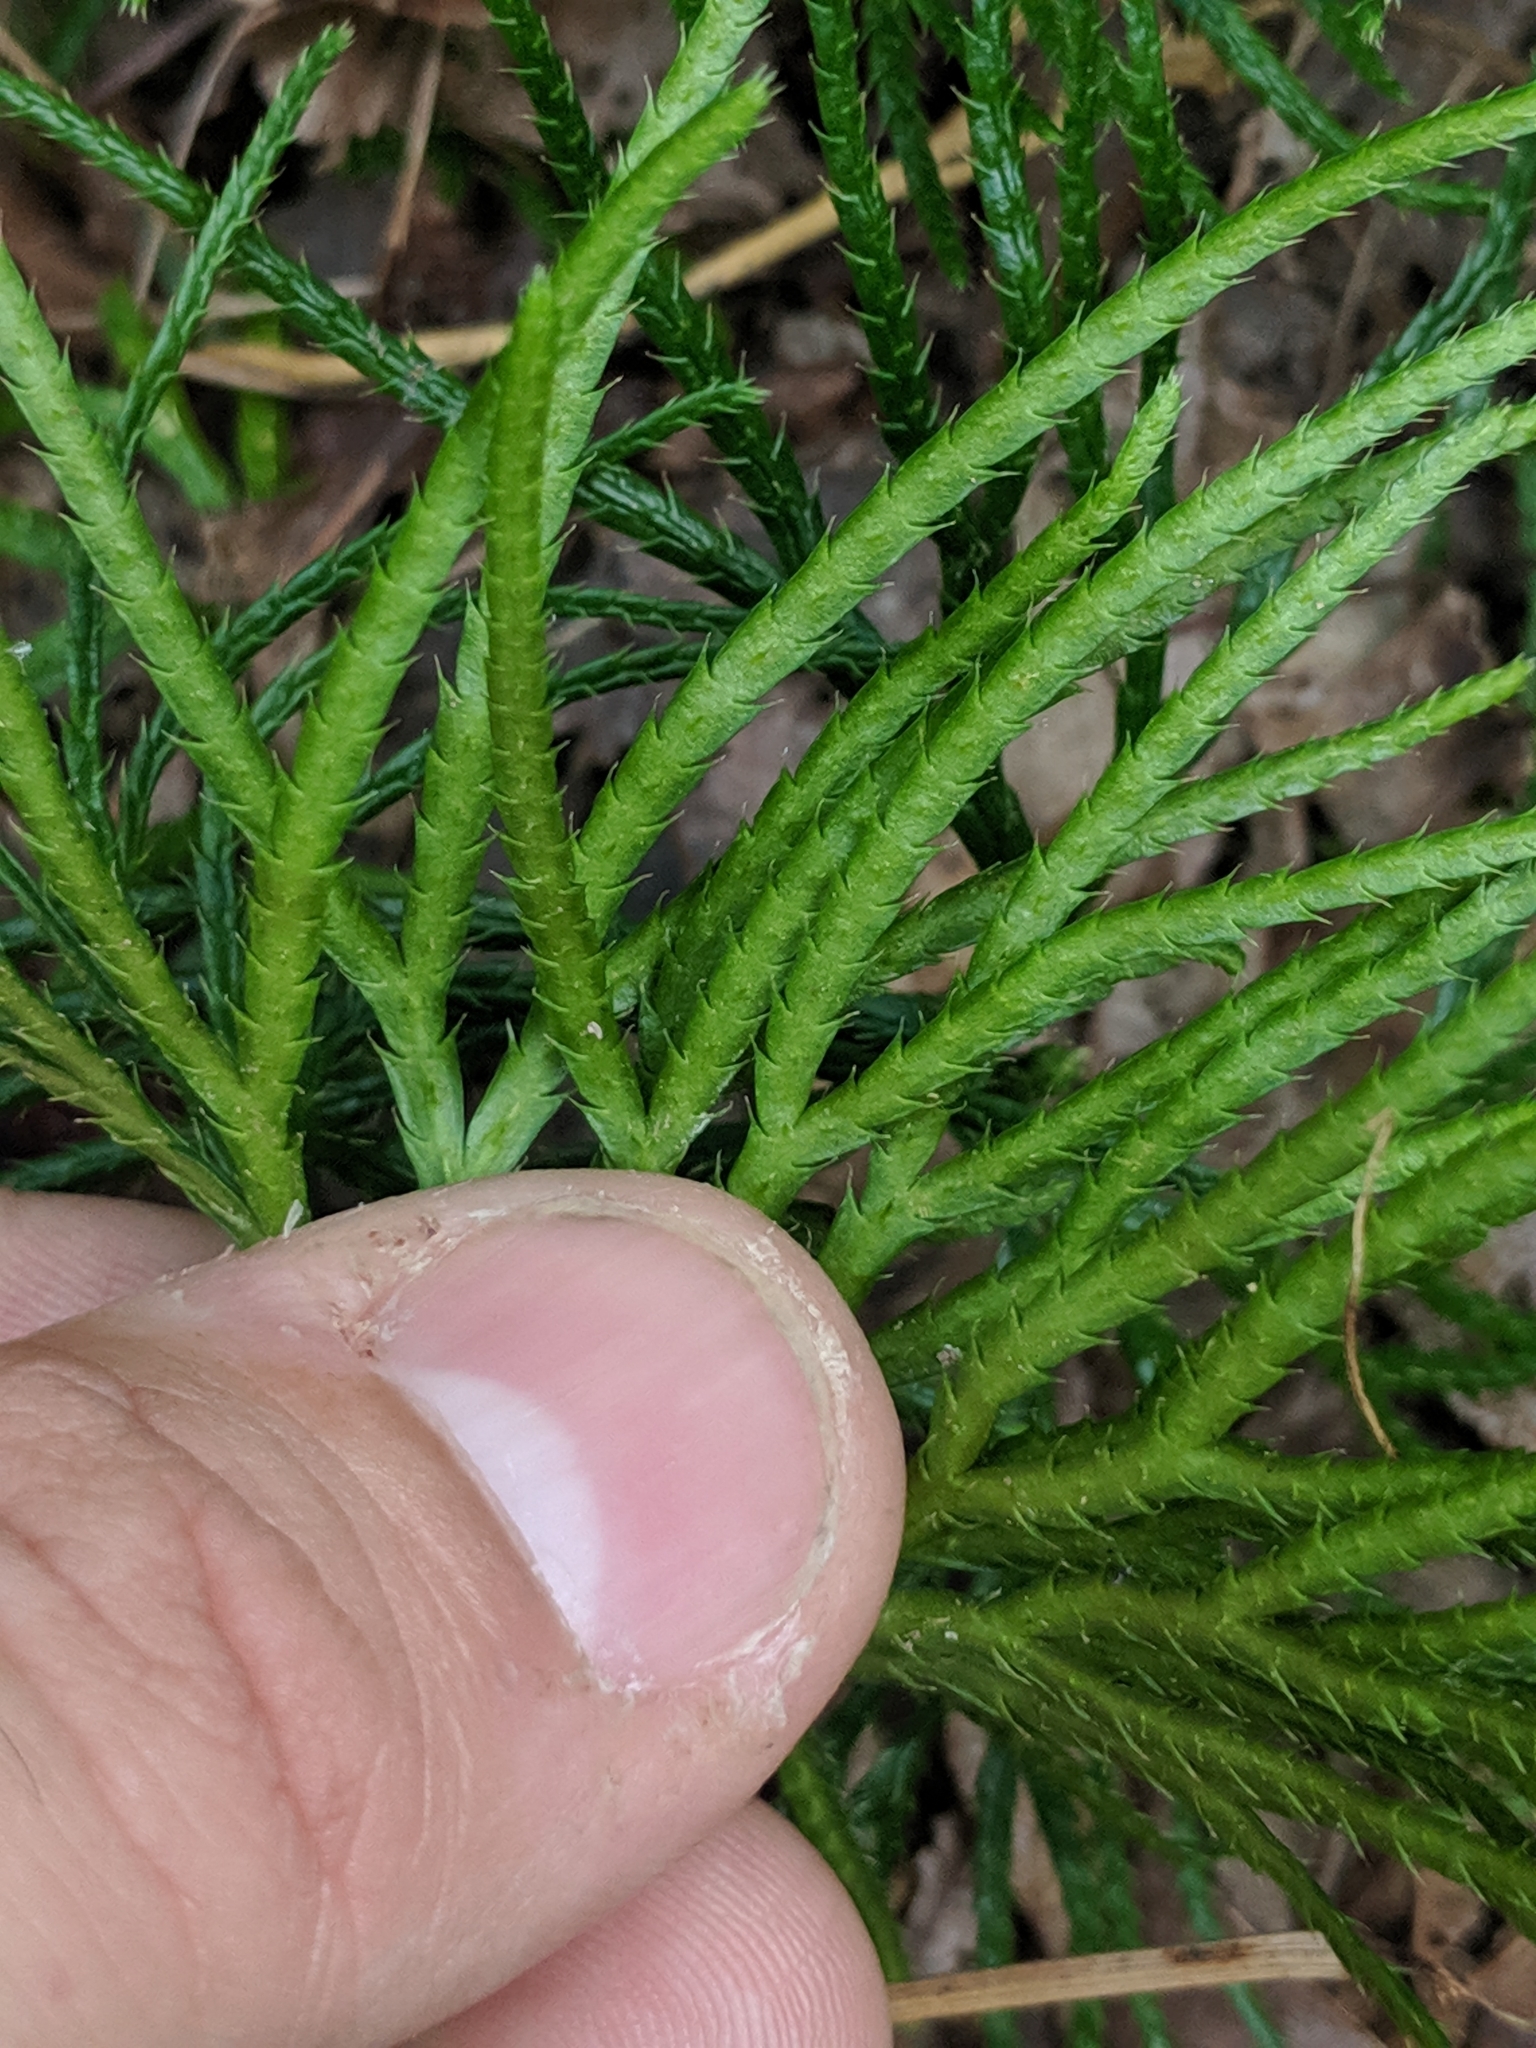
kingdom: Plantae
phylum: Tracheophyta
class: Lycopodiopsida
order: Lycopodiales
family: Lycopodiaceae
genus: Diphasiastrum
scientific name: Diphasiastrum digitatum
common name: Southern running-pine
